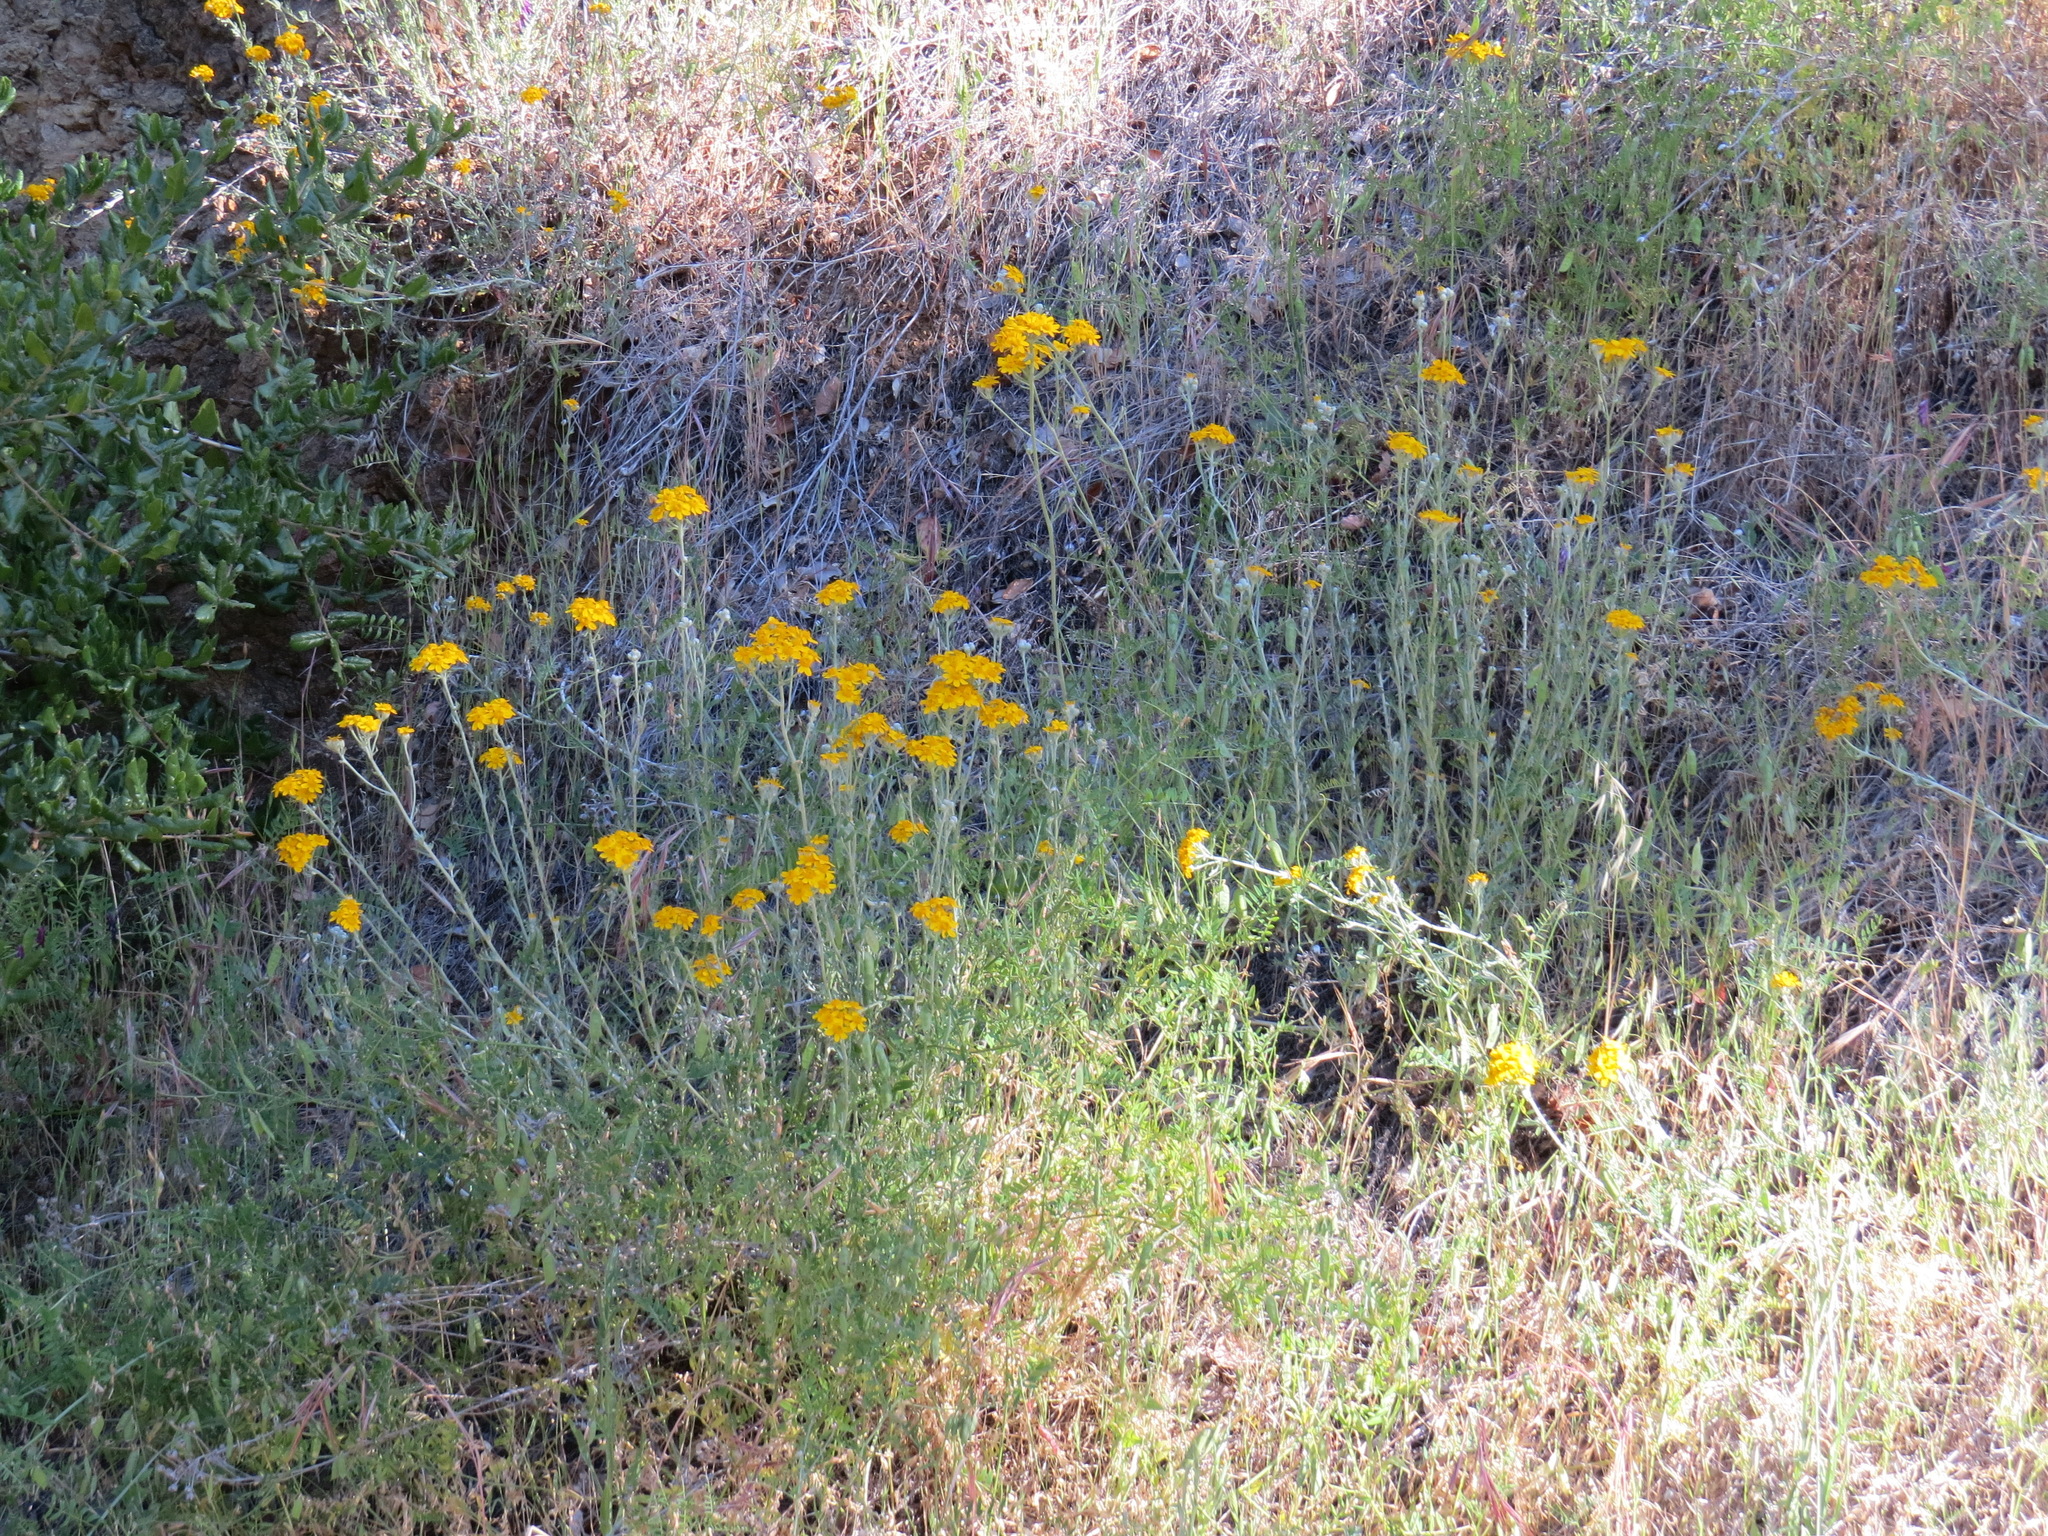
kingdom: Plantae
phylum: Tracheophyta
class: Magnoliopsida
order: Asterales
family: Asteraceae
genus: Eriophyllum
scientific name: Eriophyllum confertiflorum
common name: Golden-yarrow
